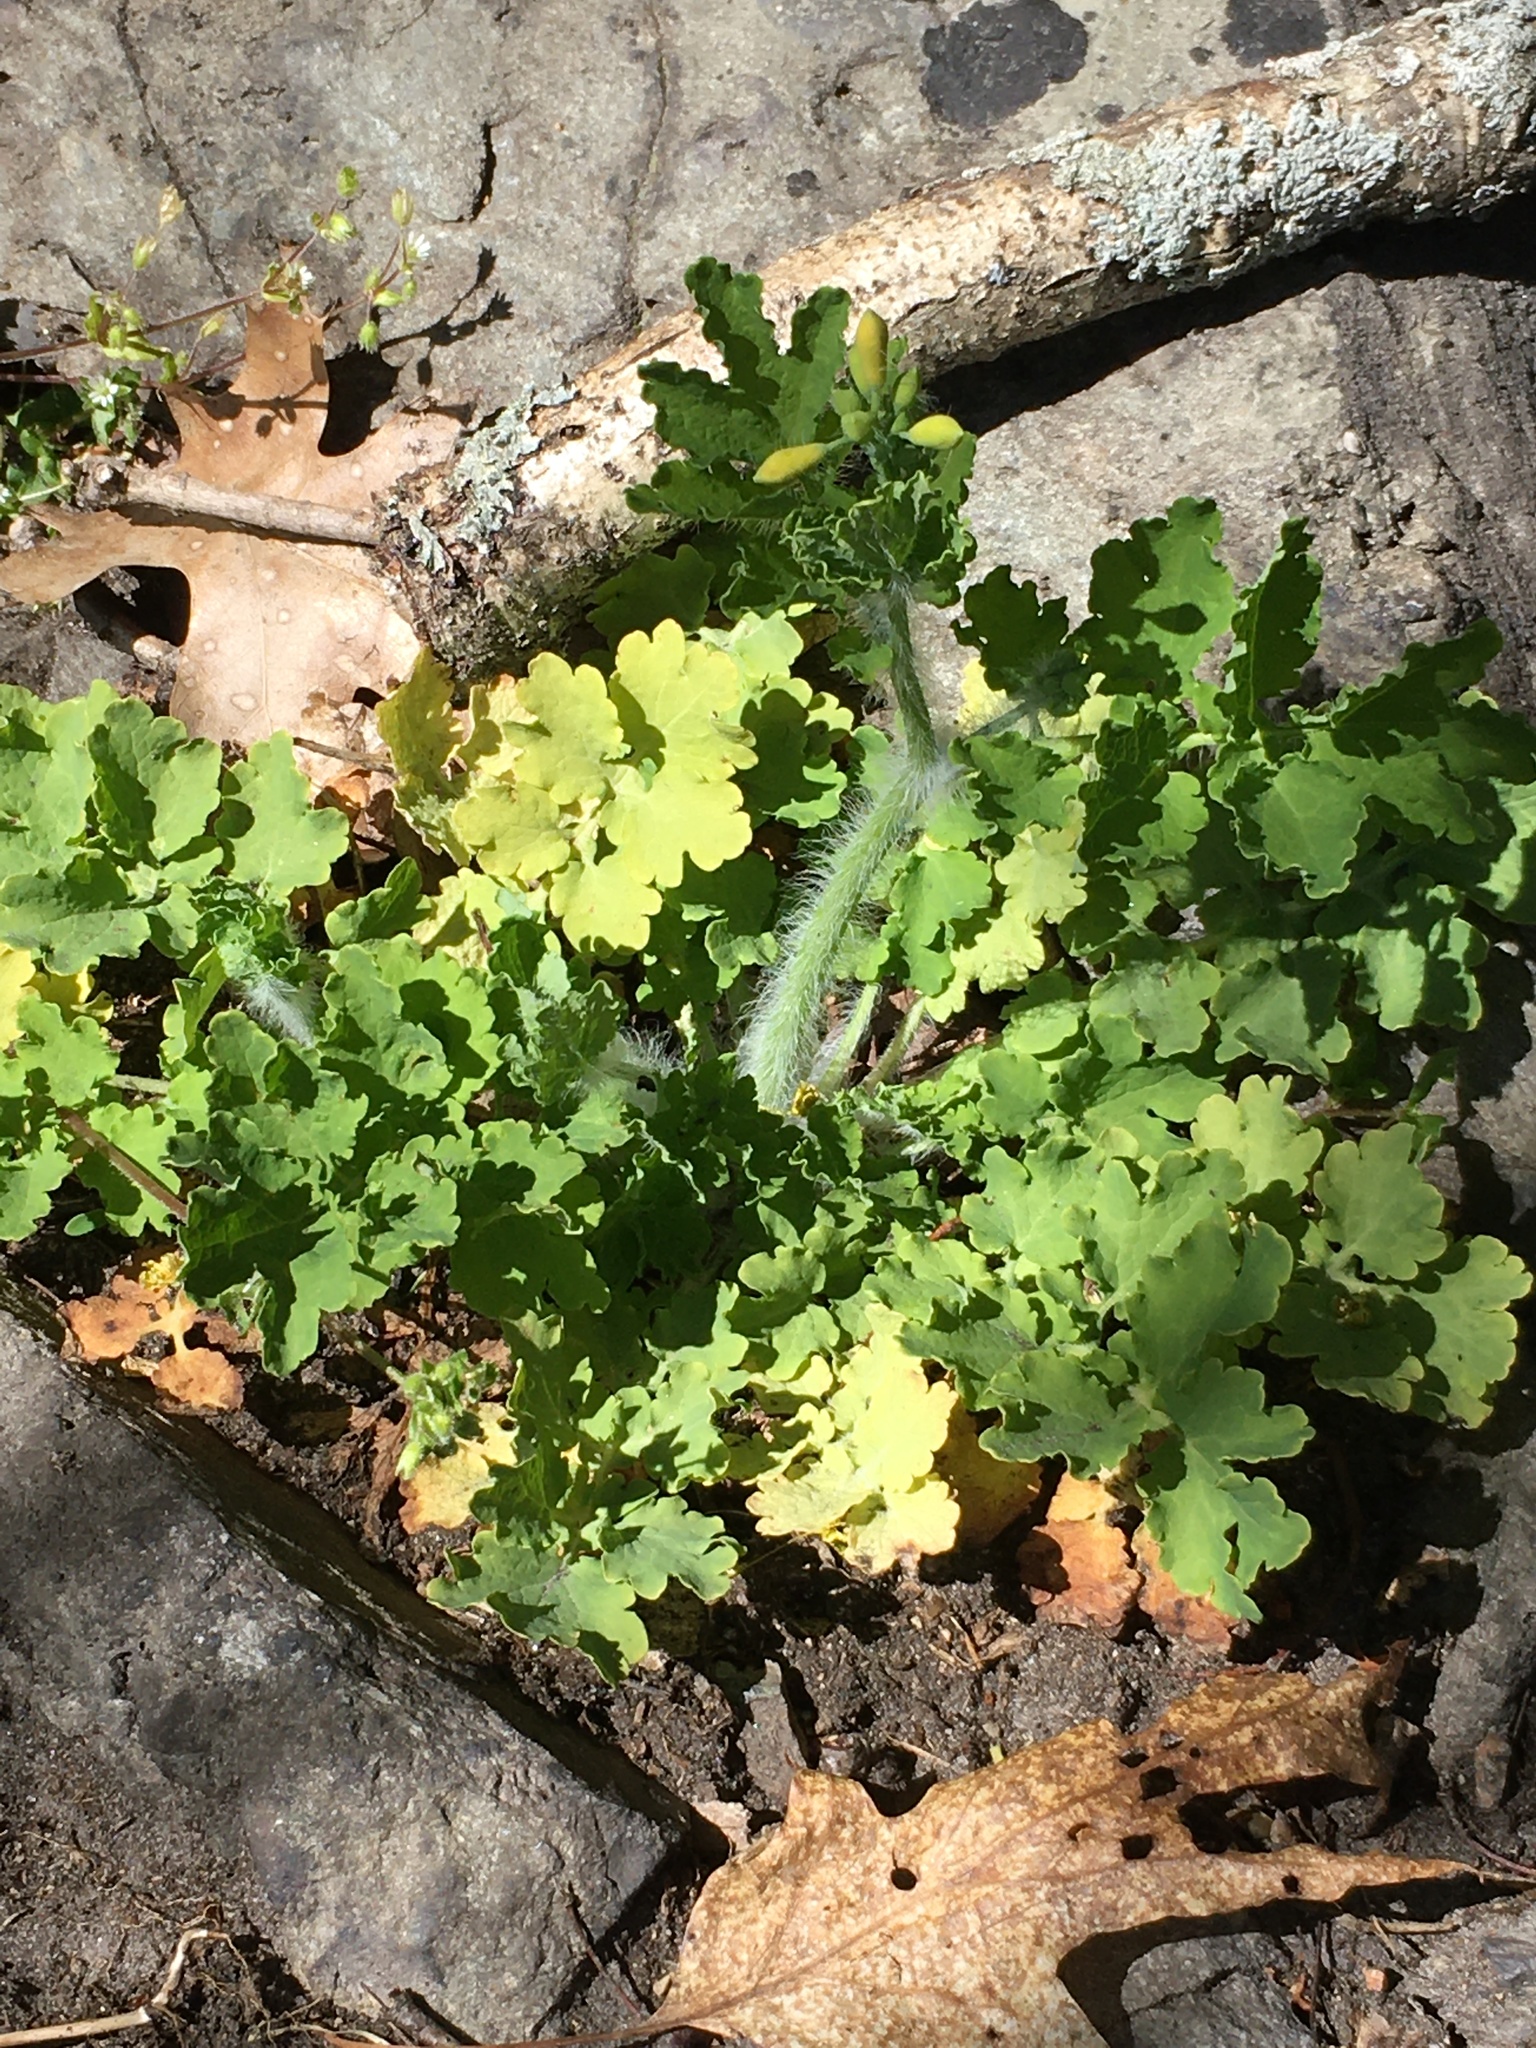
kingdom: Plantae
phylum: Tracheophyta
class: Magnoliopsida
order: Ranunculales
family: Papaveraceae
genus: Chelidonium
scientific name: Chelidonium majus
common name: Greater celandine
